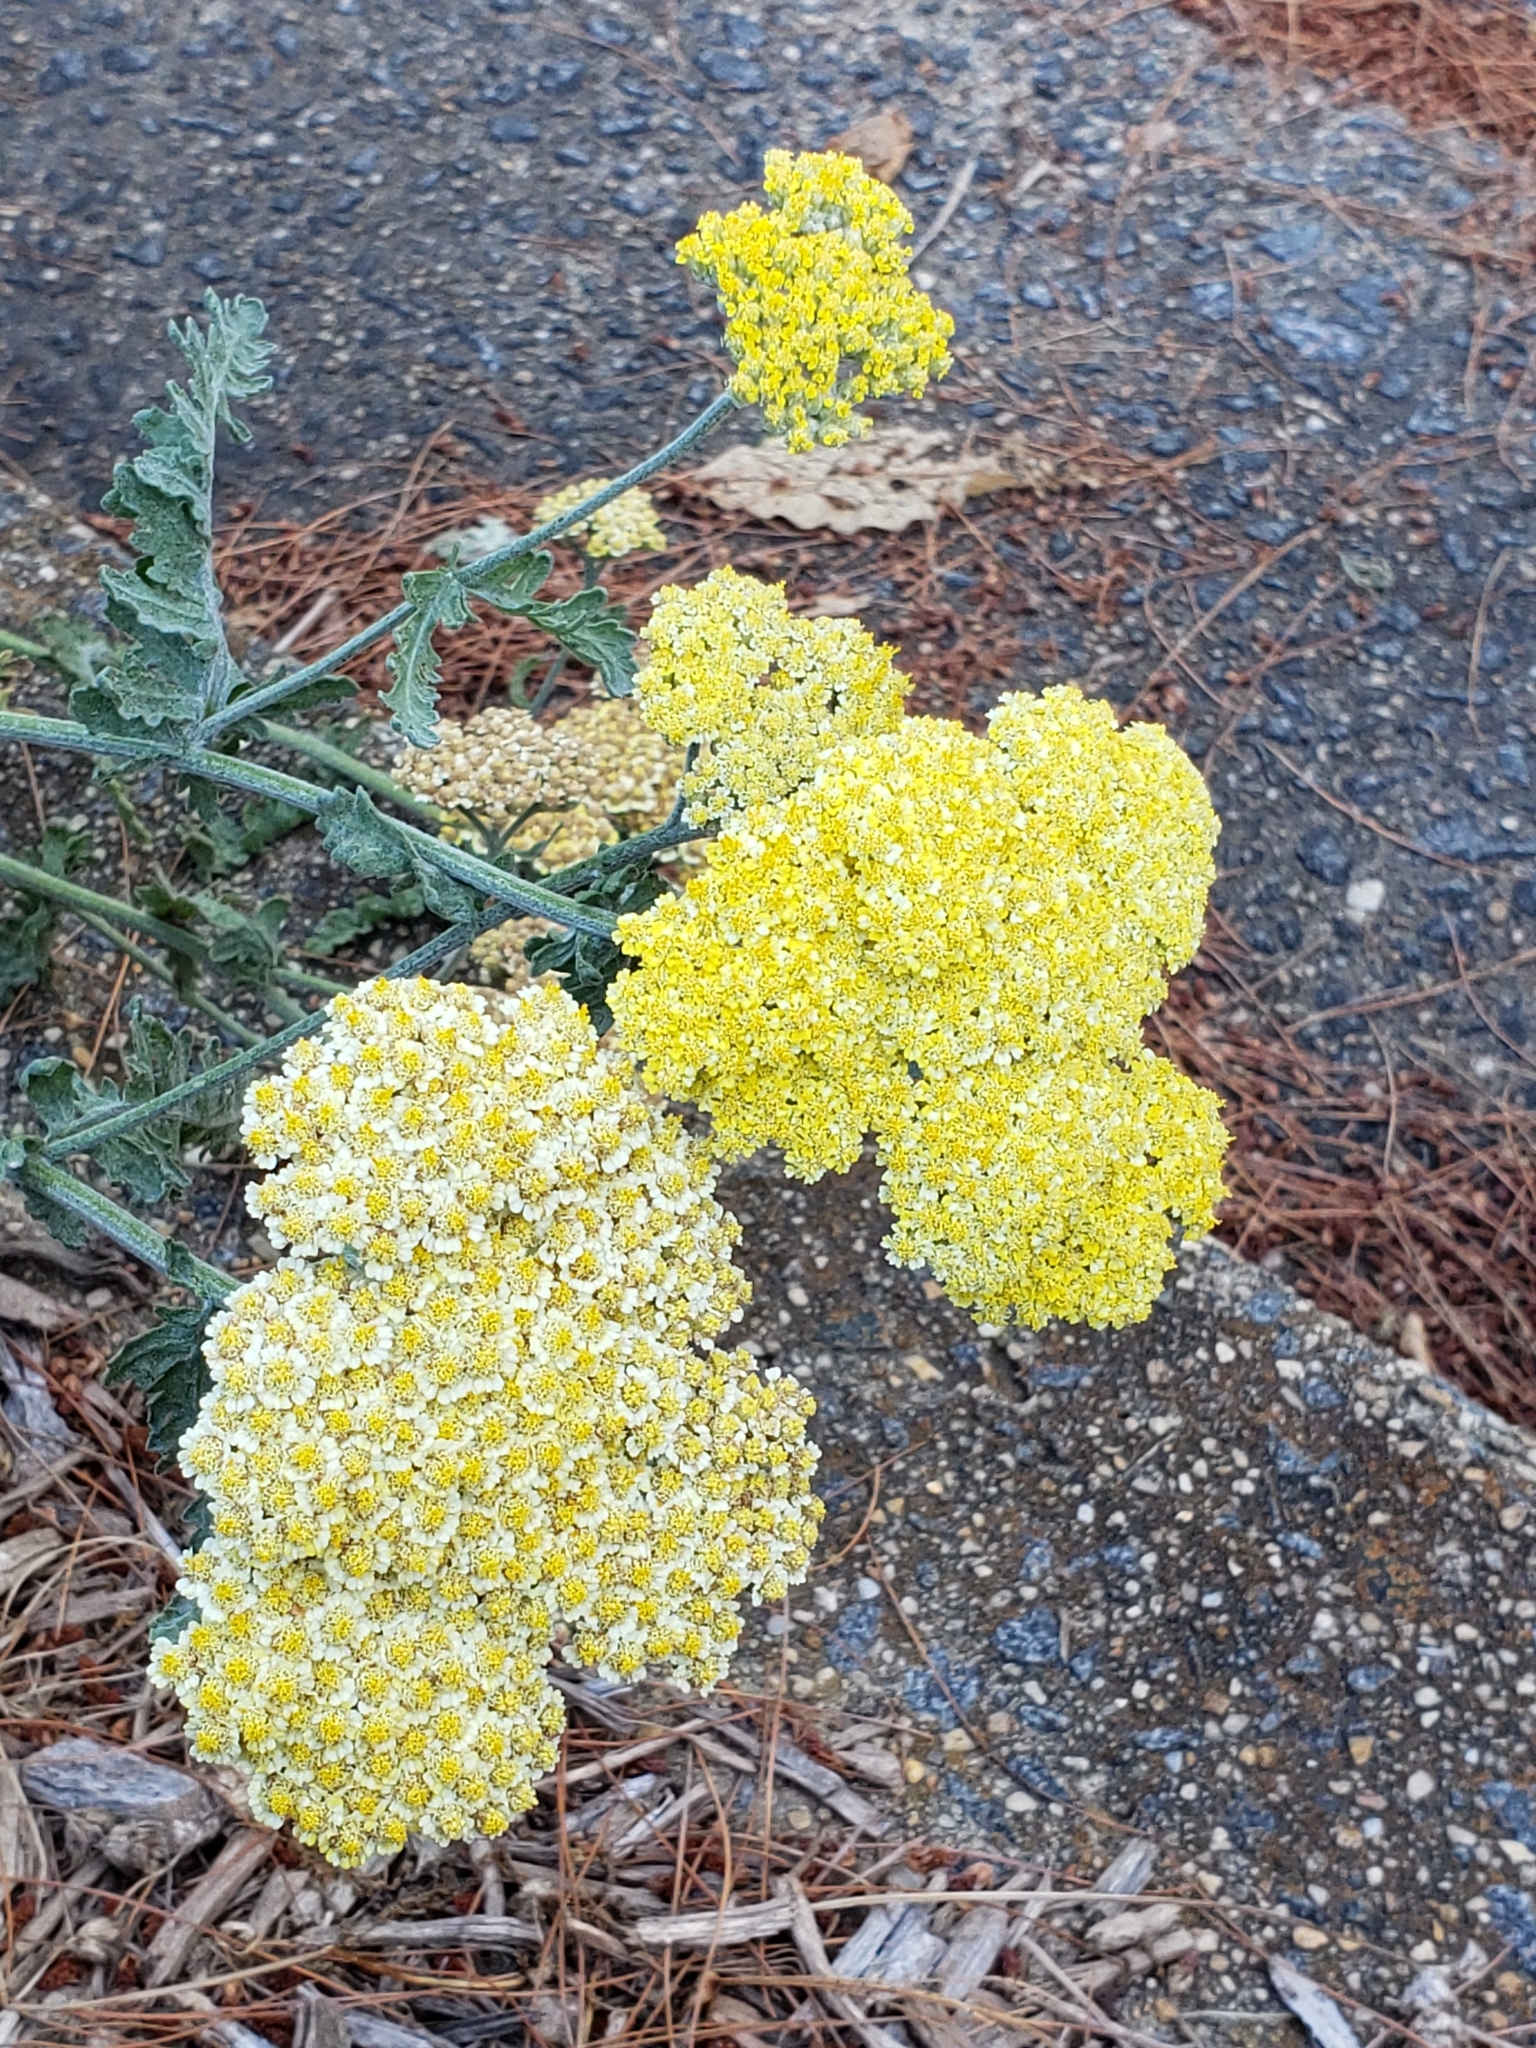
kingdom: Plantae
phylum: Tracheophyta
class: Magnoliopsida
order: Asterales
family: Asteraceae
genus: Achillea
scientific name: Achillea filipendulina
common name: Fernleaf yarrow
